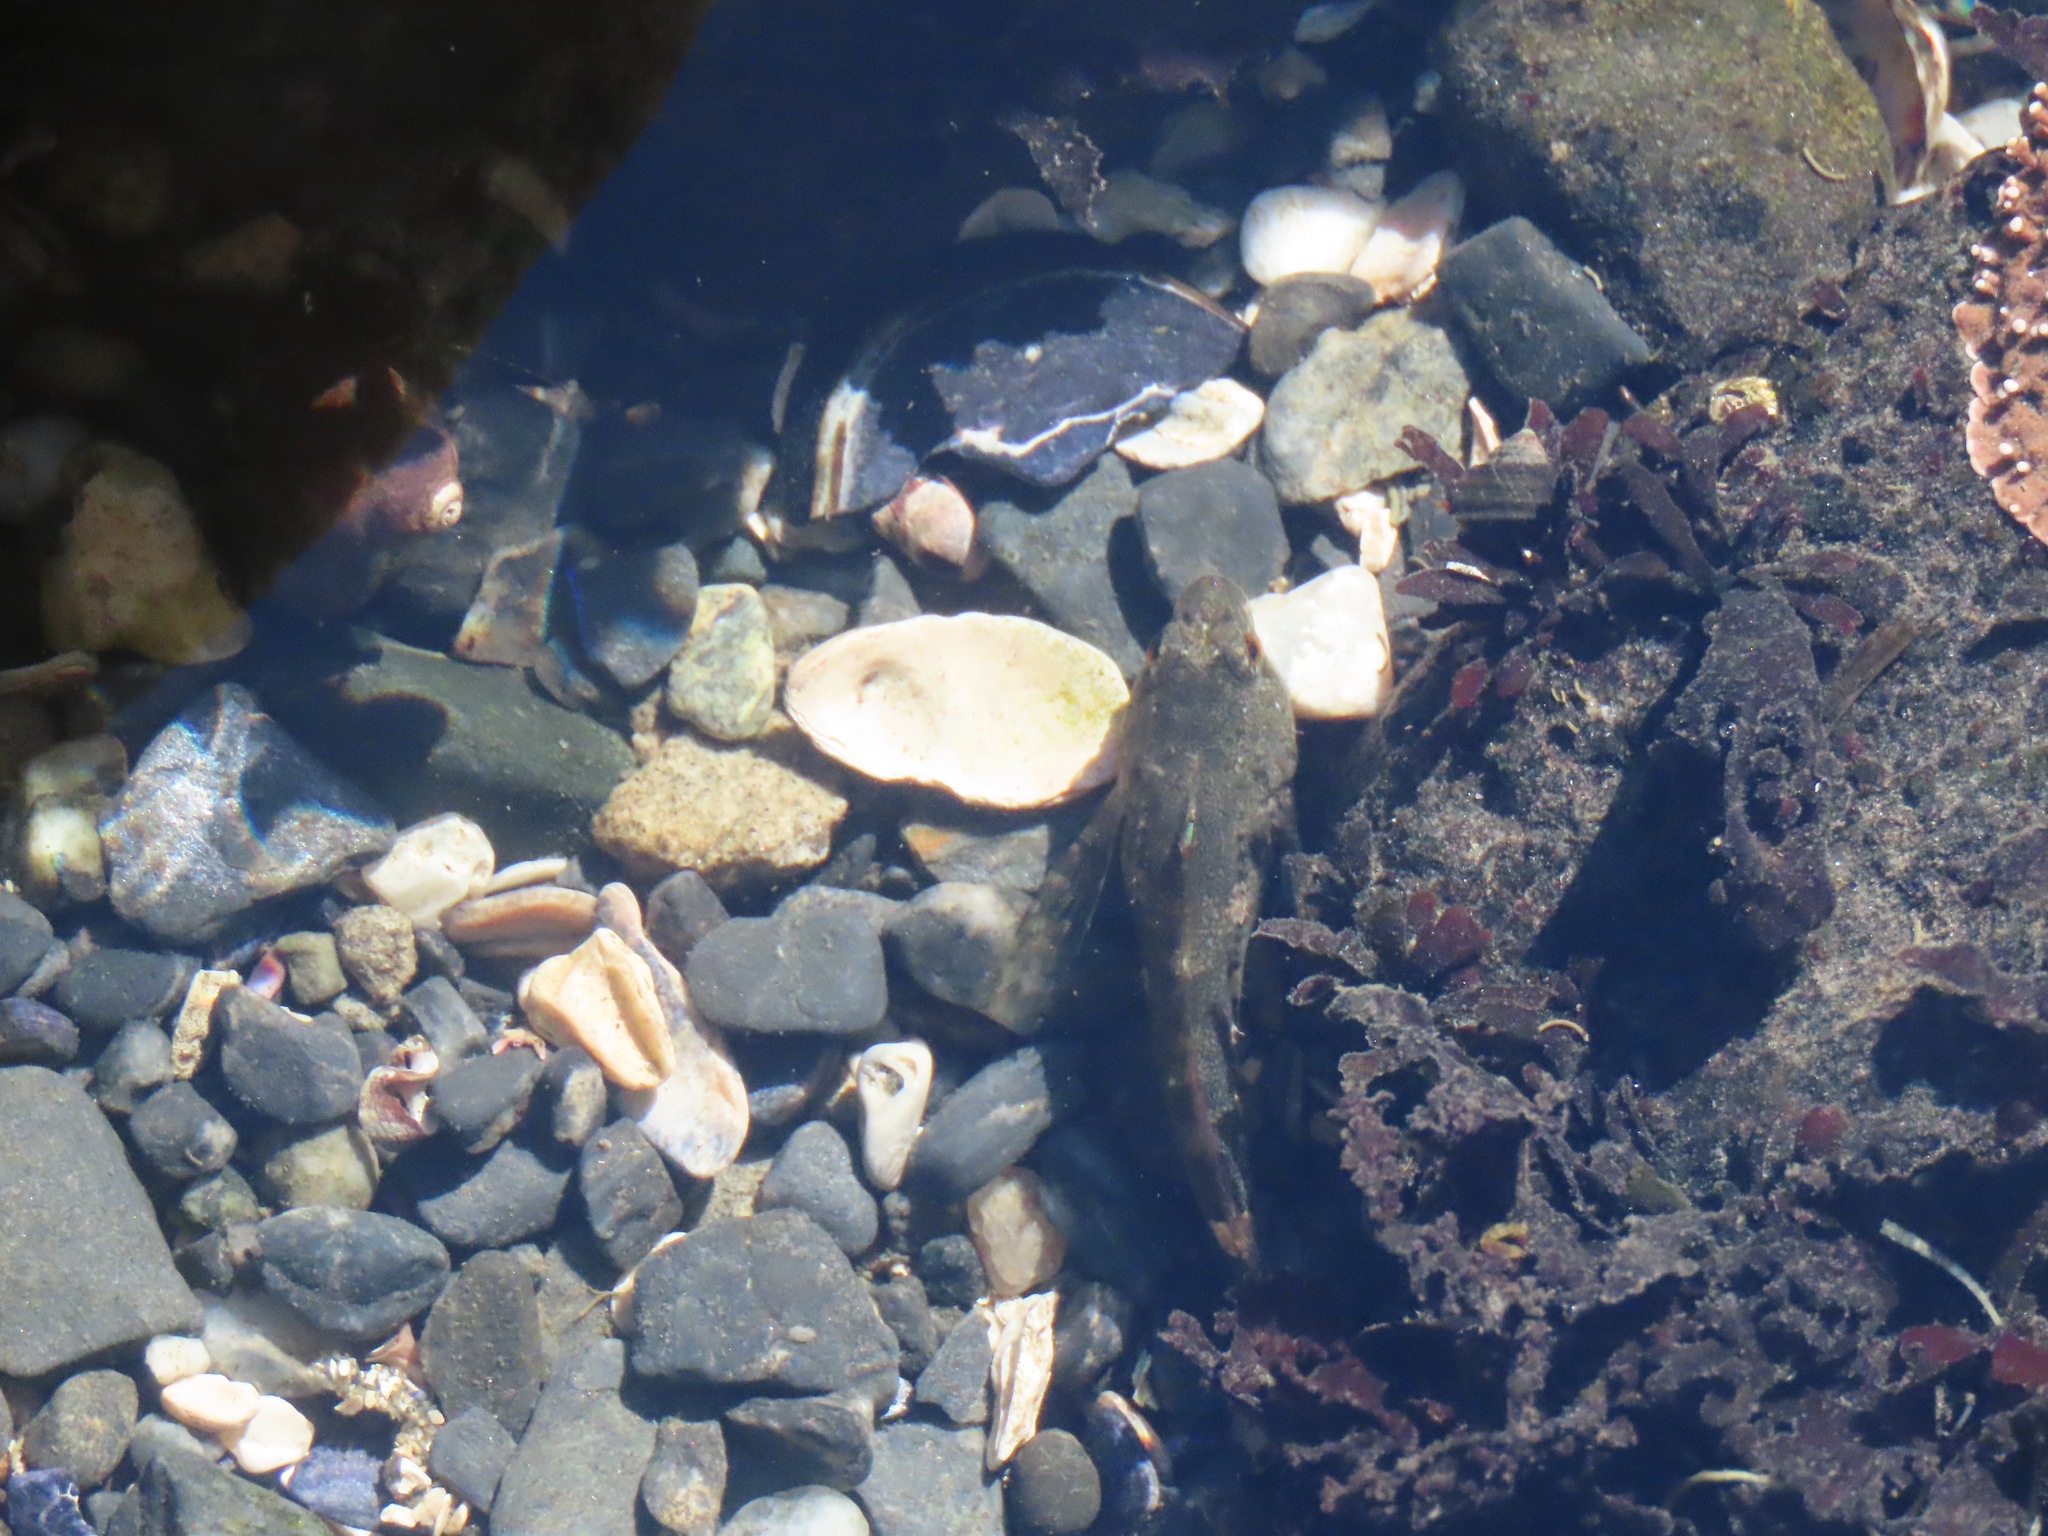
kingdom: Animalia
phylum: Chordata
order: Scorpaeniformes
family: Cottidae
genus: Oligocottus
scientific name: Oligocottus maculosus
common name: Tidepool sculpin
